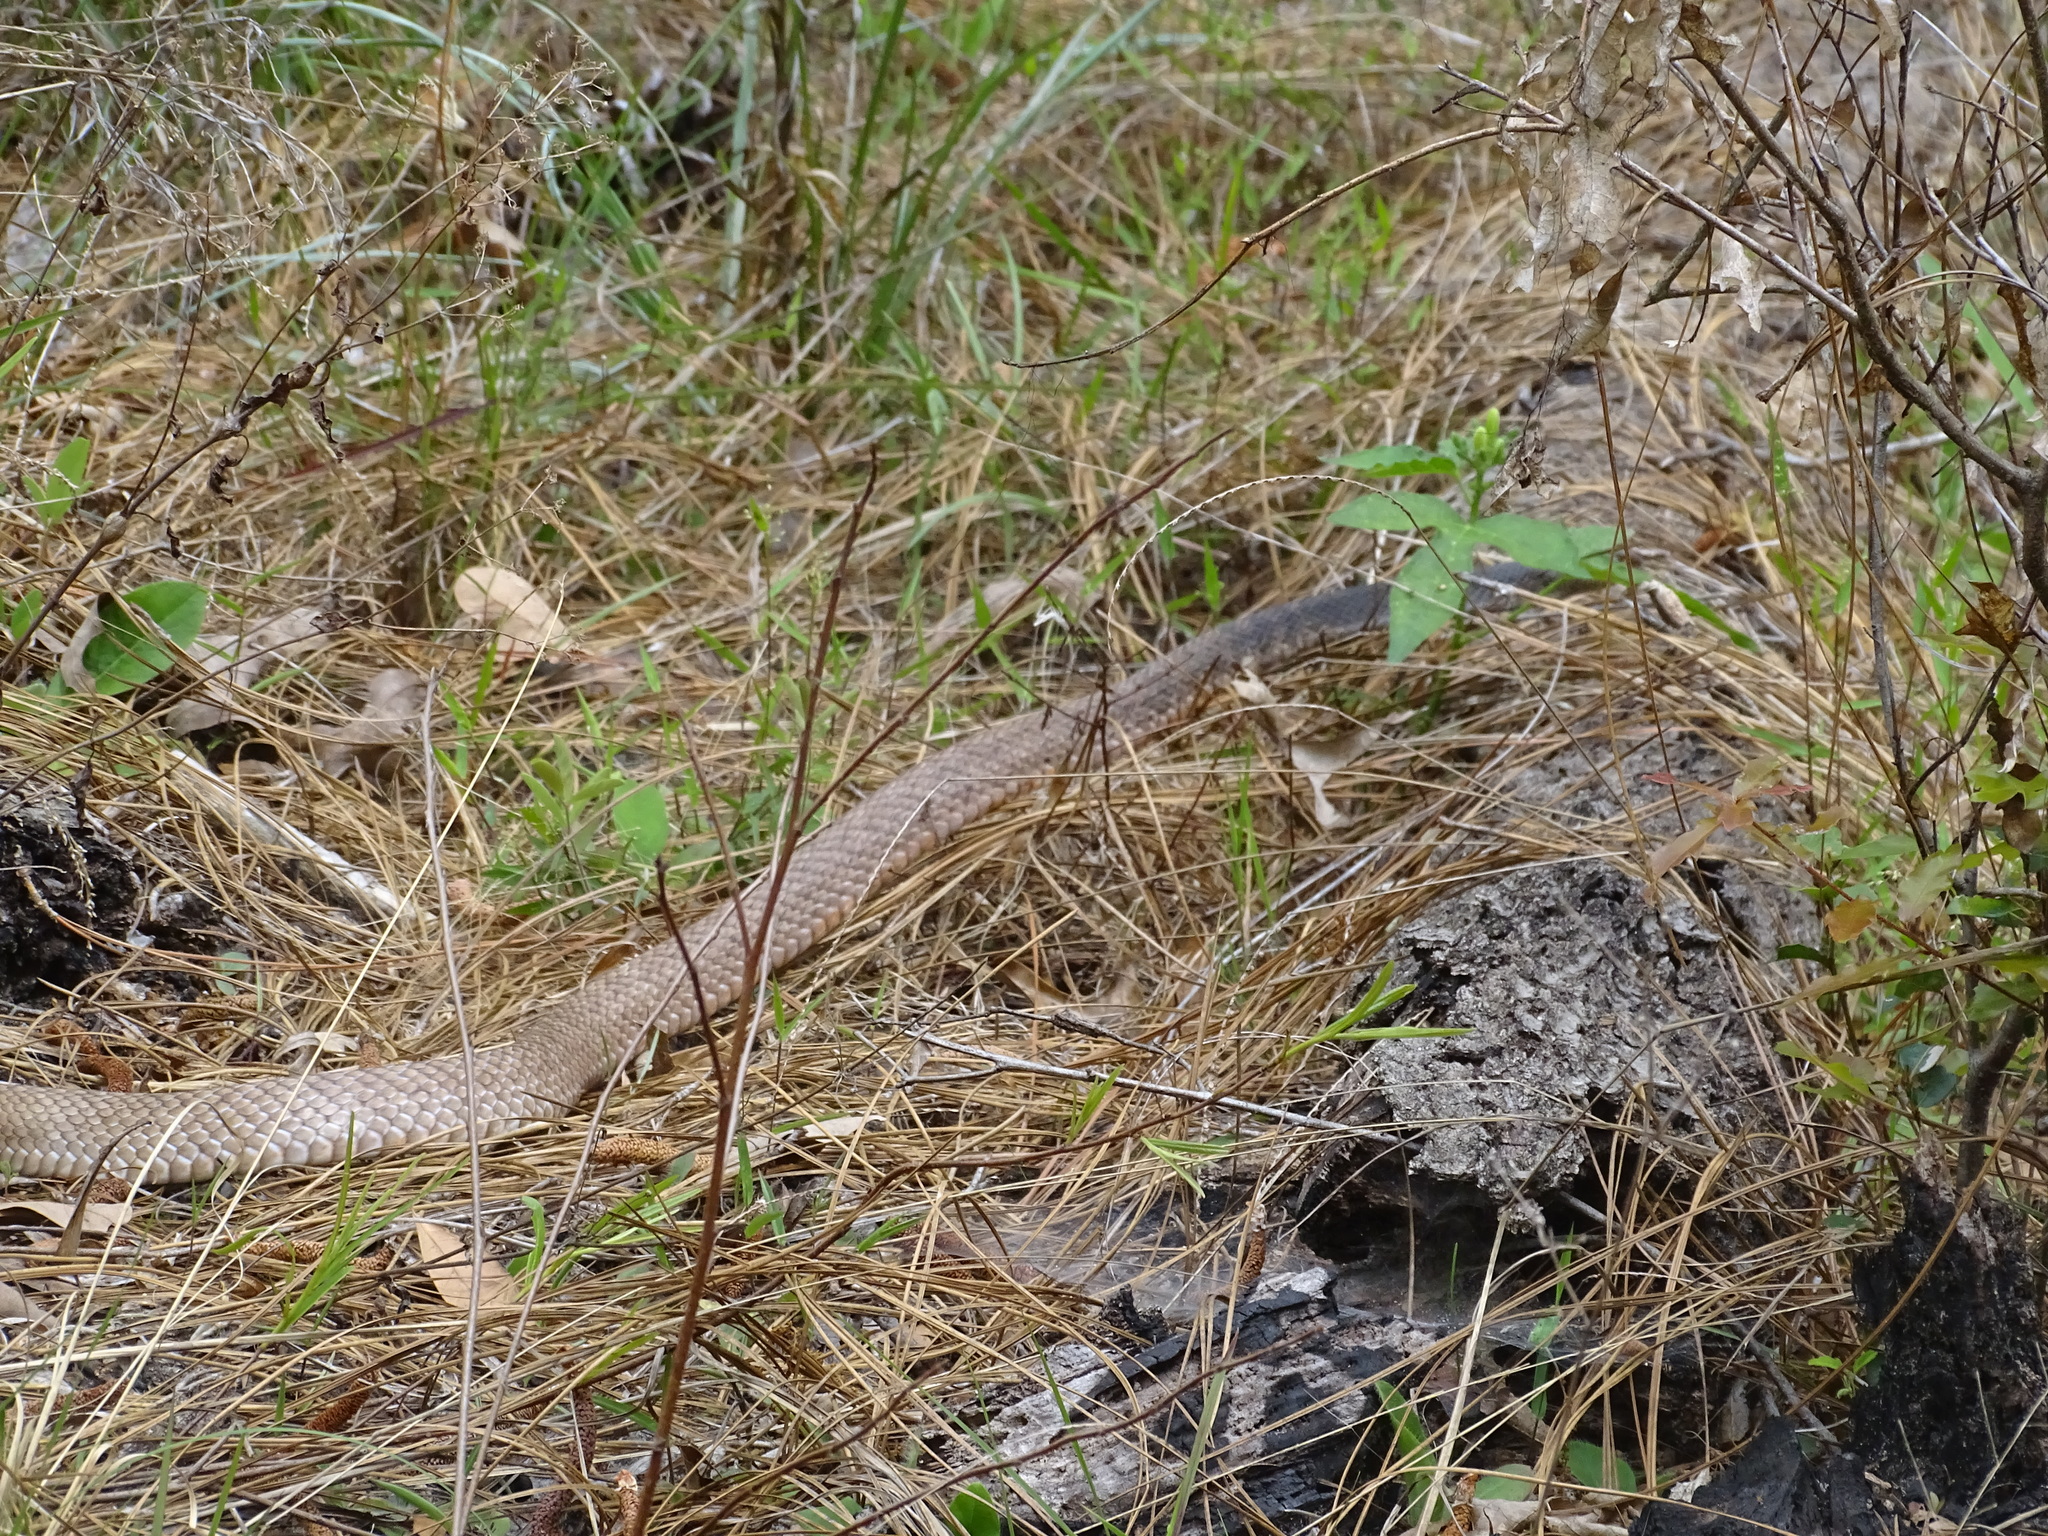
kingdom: Animalia
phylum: Chordata
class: Squamata
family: Colubridae
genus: Masticophis
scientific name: Masticophis flagellum
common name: Coachwhip
